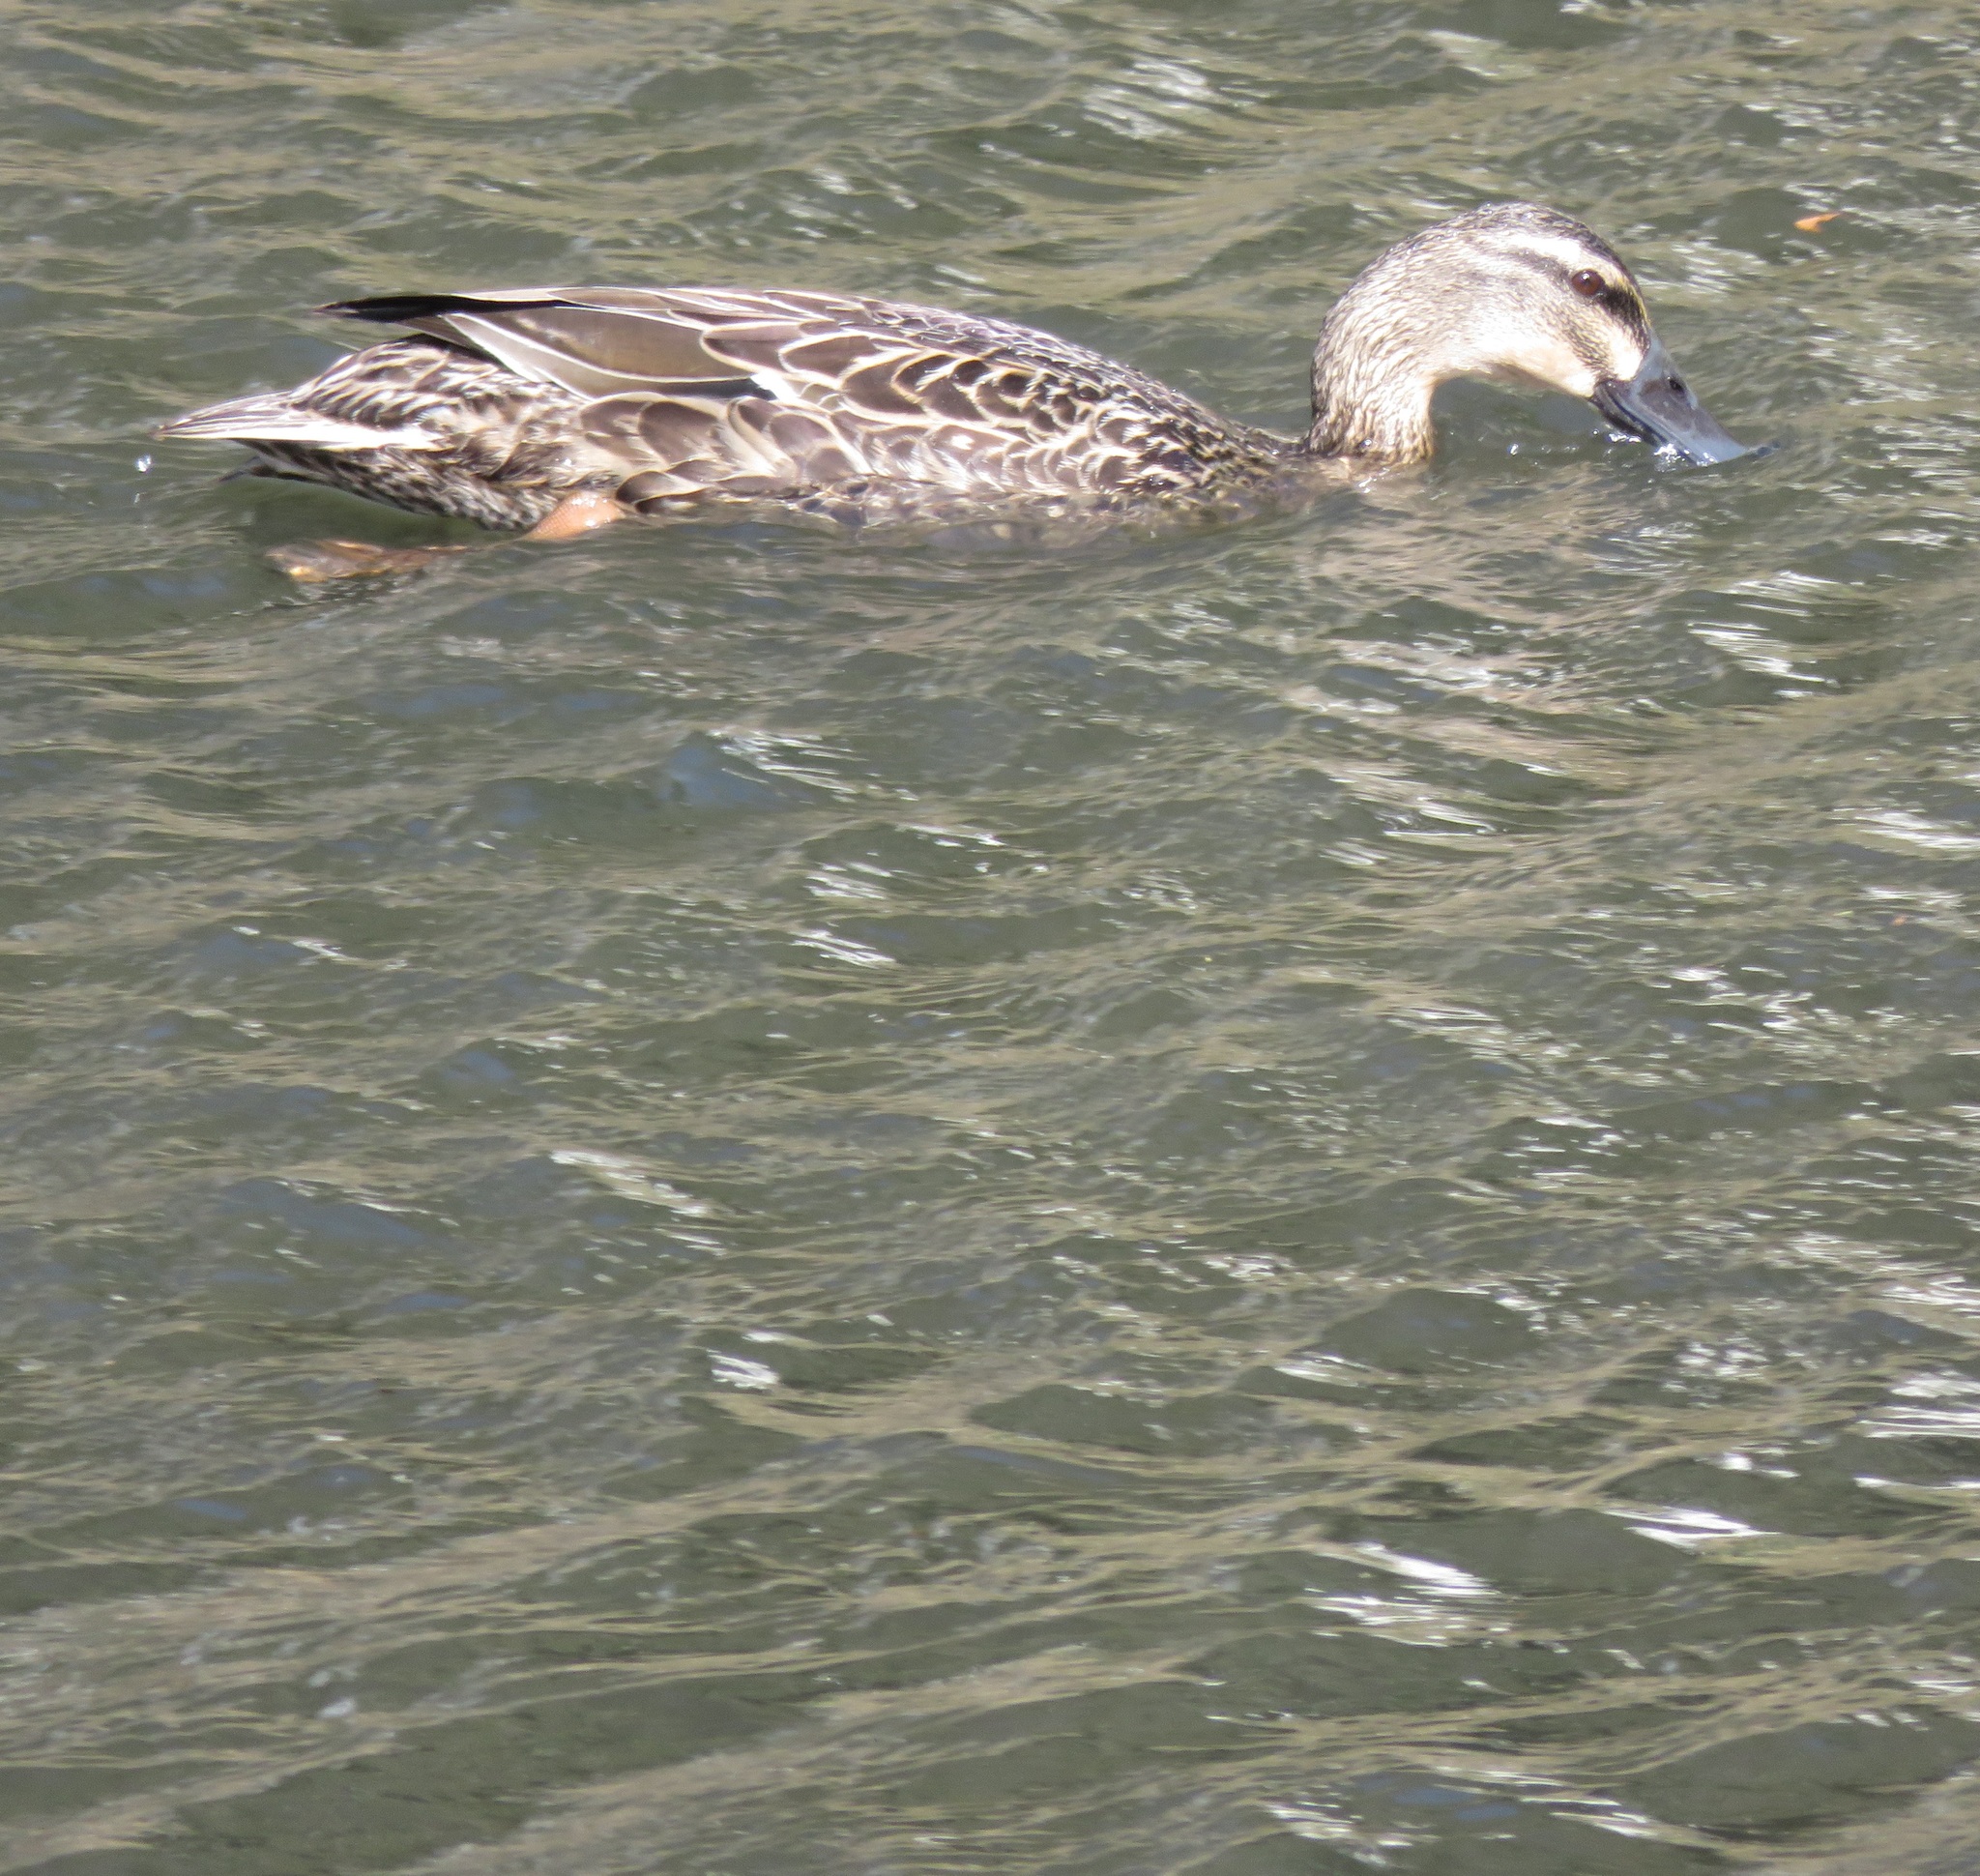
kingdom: Animalia
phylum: Chordata
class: Aves
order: Anseriformes
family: Anatidae
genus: Anas
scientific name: Anas
